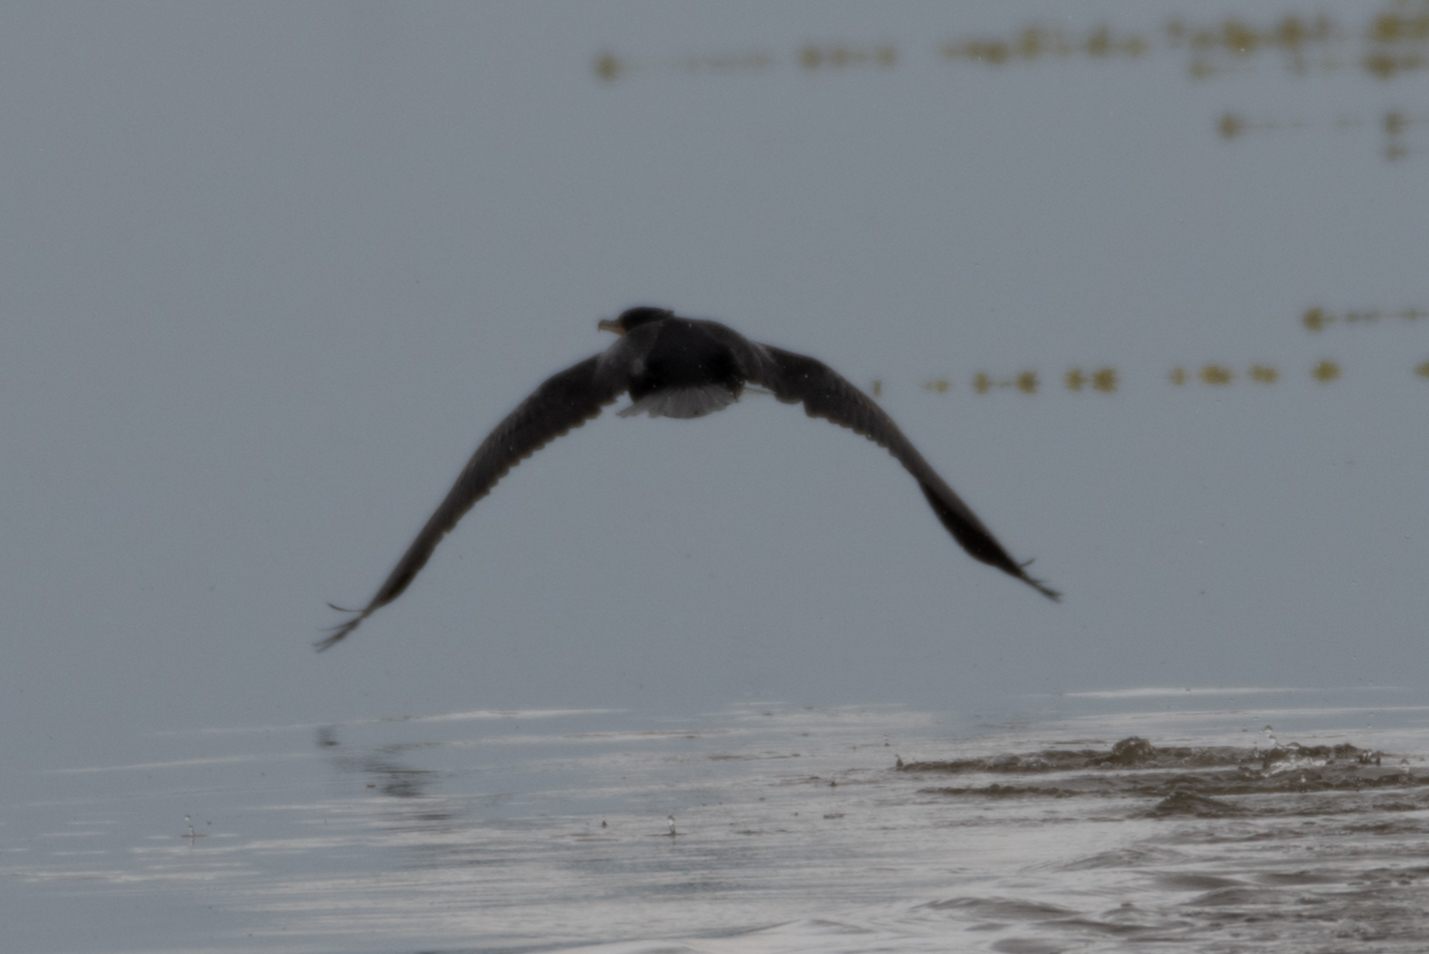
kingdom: Animalia
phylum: Chordata
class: Aves
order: Suliformes
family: Phalacrocoracidae
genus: Phalacrocorax
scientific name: Phalacrocorax auritus
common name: Double-crested cormorant
